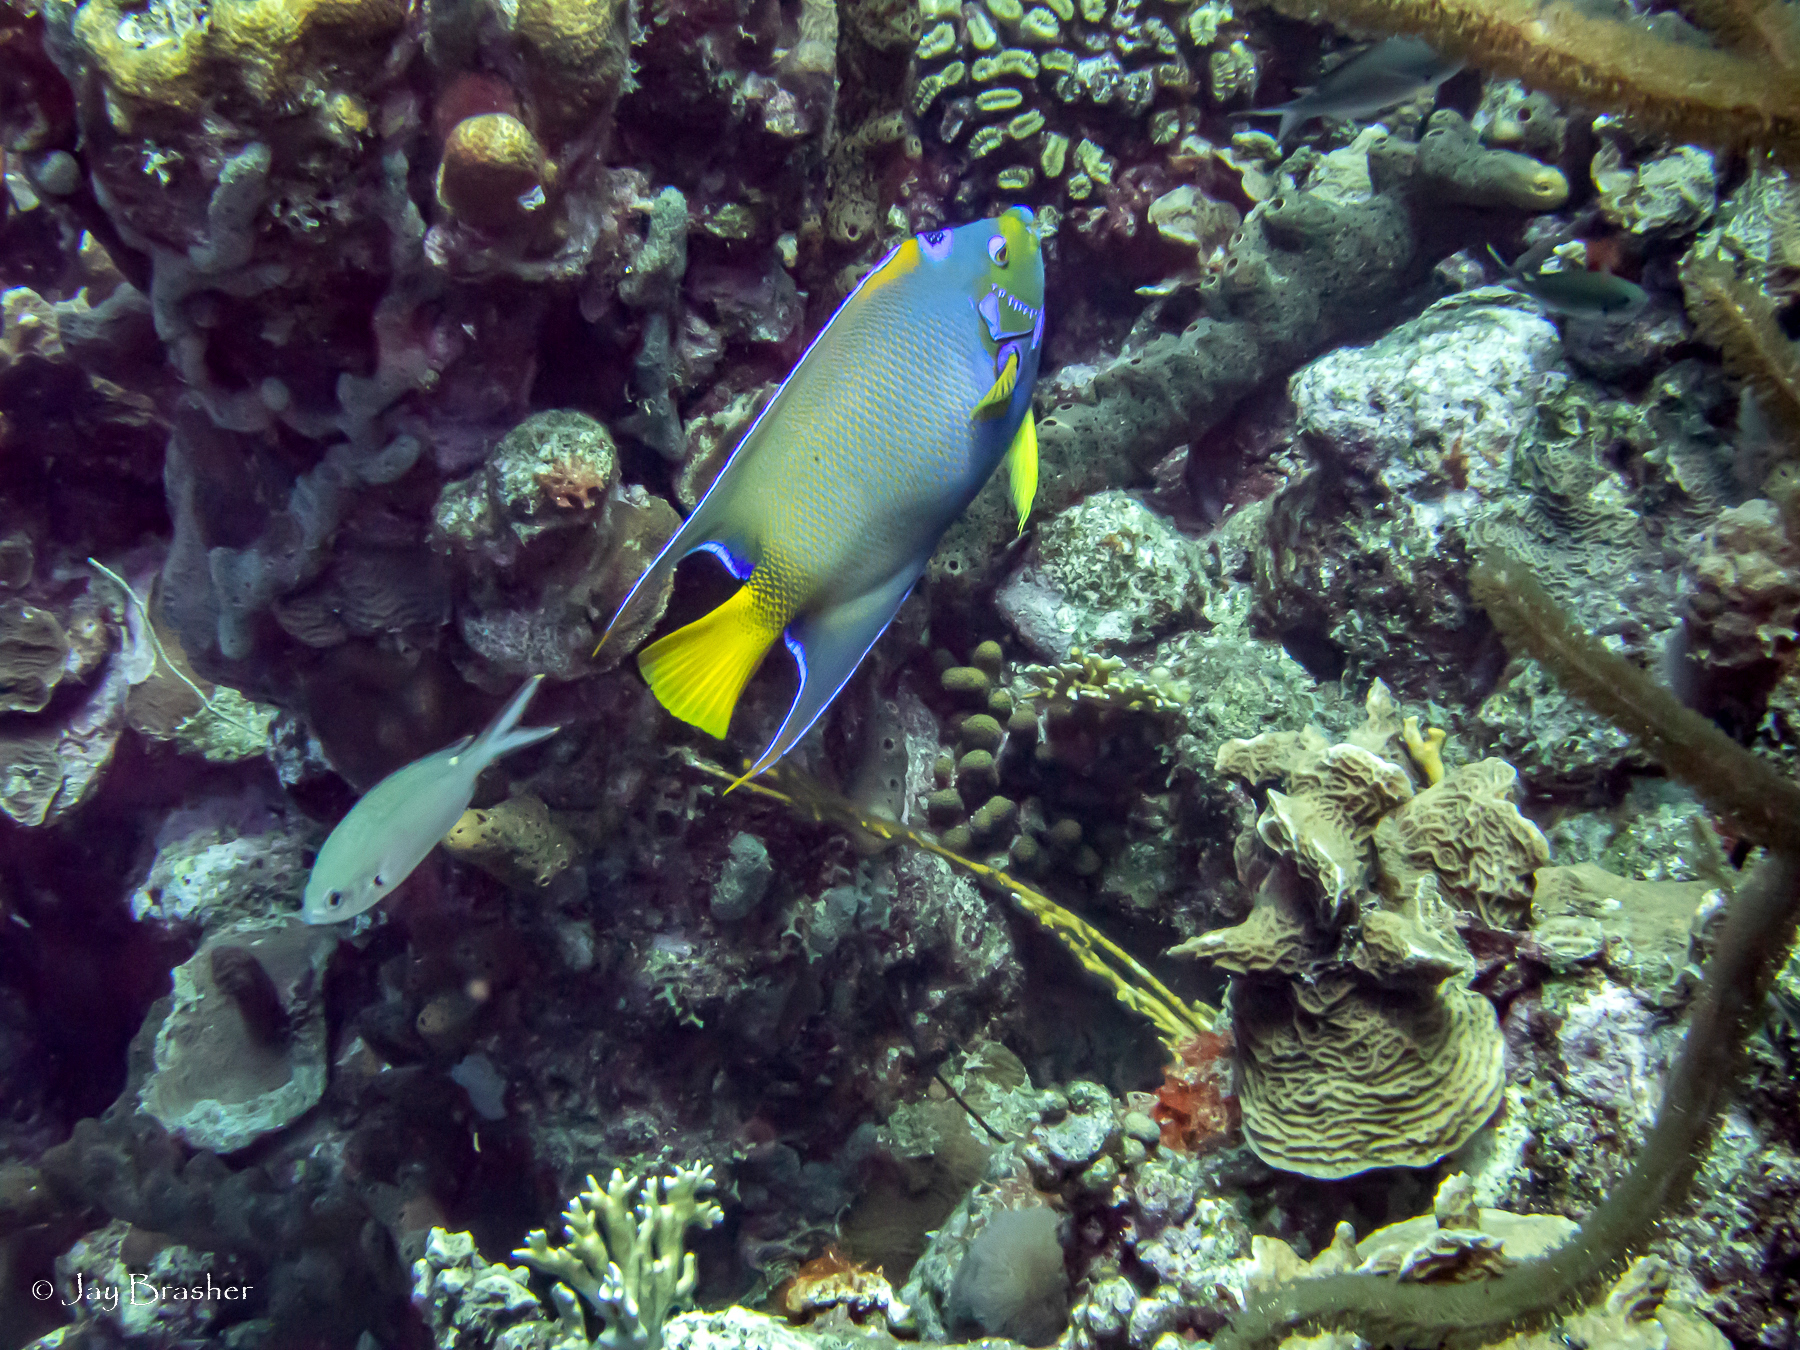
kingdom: Animalia
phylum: Chordata
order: Perciformes
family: Pomacentridae
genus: Chromis
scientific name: Chromis multilineata
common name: Brown chromis
